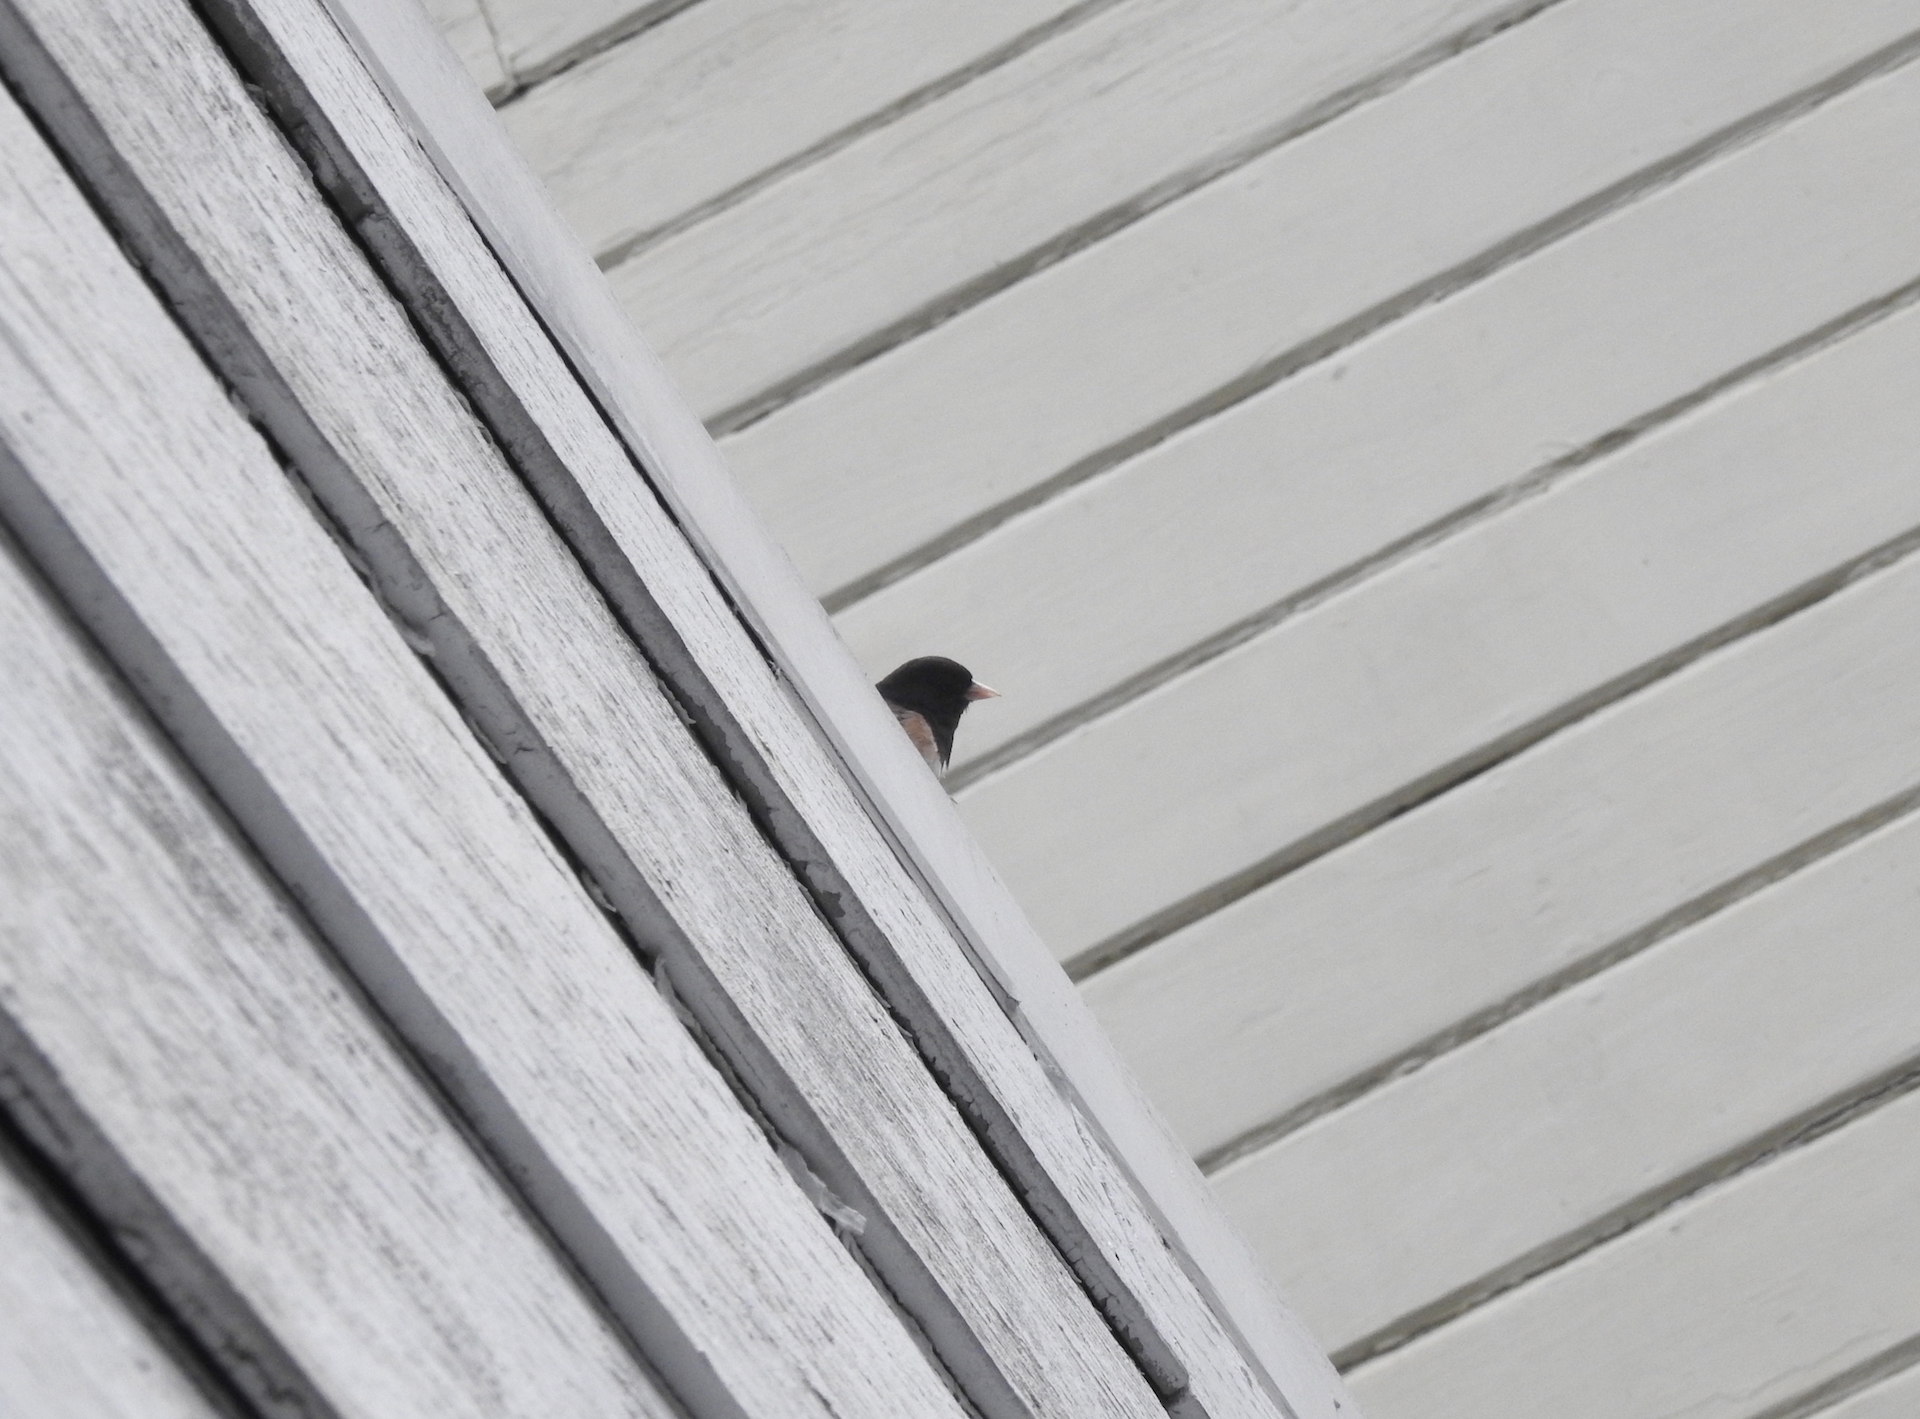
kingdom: Animalia
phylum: Chordata
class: Aves
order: Passeriformes
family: Passerellidae
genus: Junco
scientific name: Junco hyemalis
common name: Dark-eyed junco
